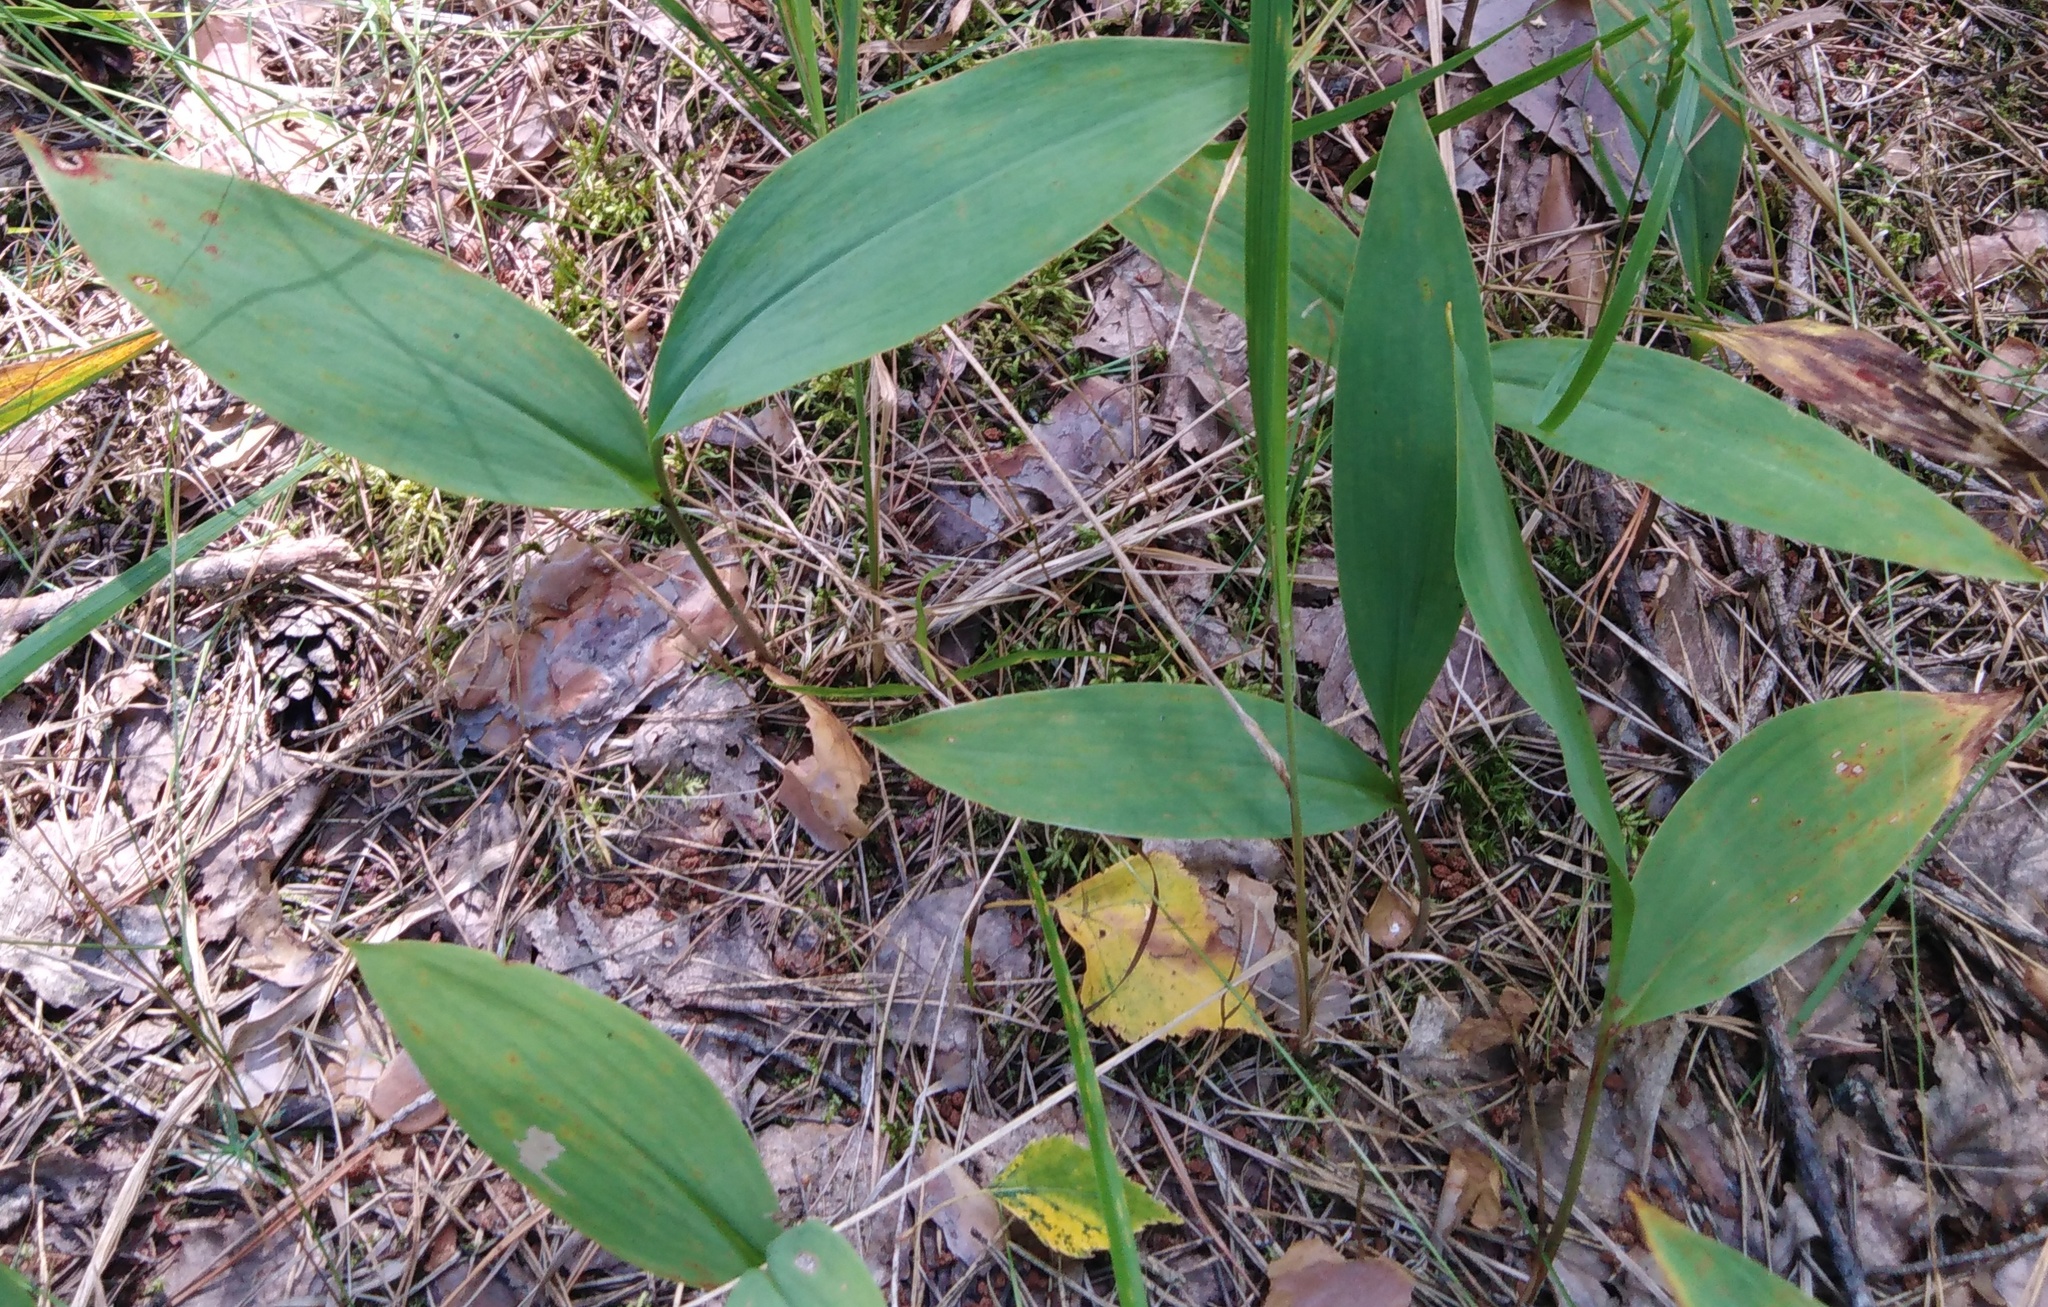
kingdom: Plantae
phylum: Tracheophyta
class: Liliopsida
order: Asparagales
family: Asparagaceae
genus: Convallaria
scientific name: Convallaria majalis
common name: Lily-of-the-valley
